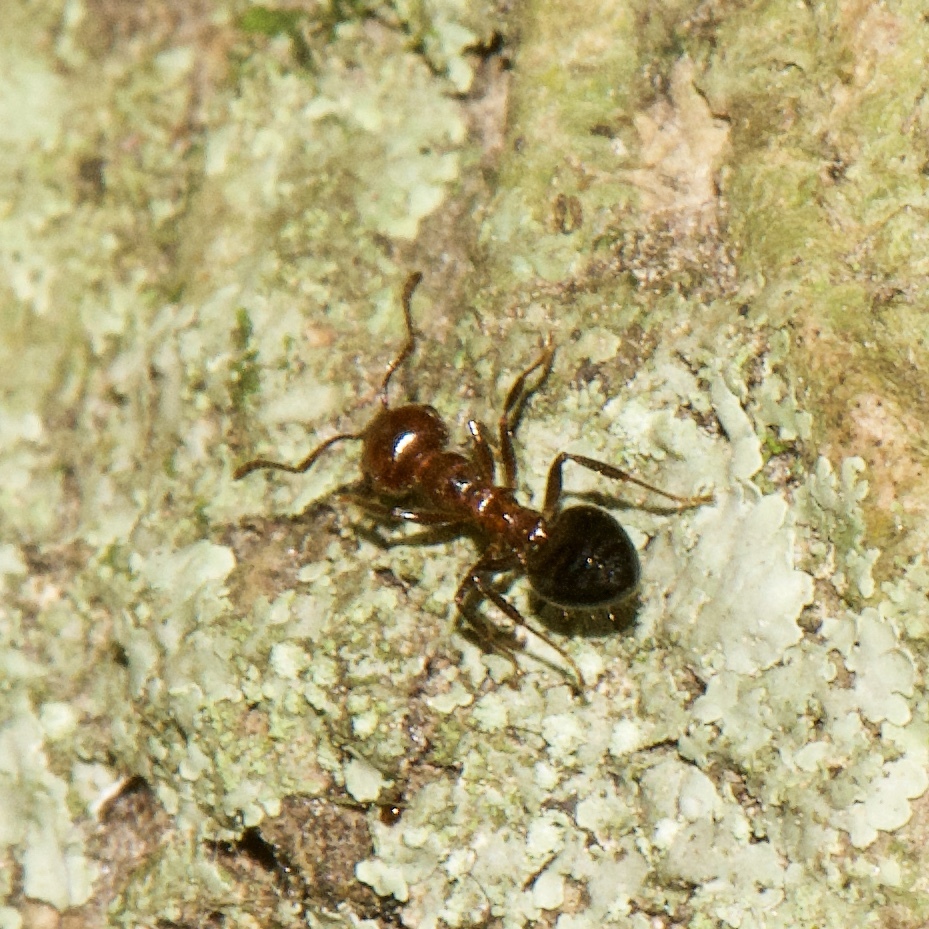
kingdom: Animalia
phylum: Arthropoda
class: Insecta
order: Hymenoptera
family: Formicidae
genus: Crematogaster
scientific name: Crematogaster laeviuscula
